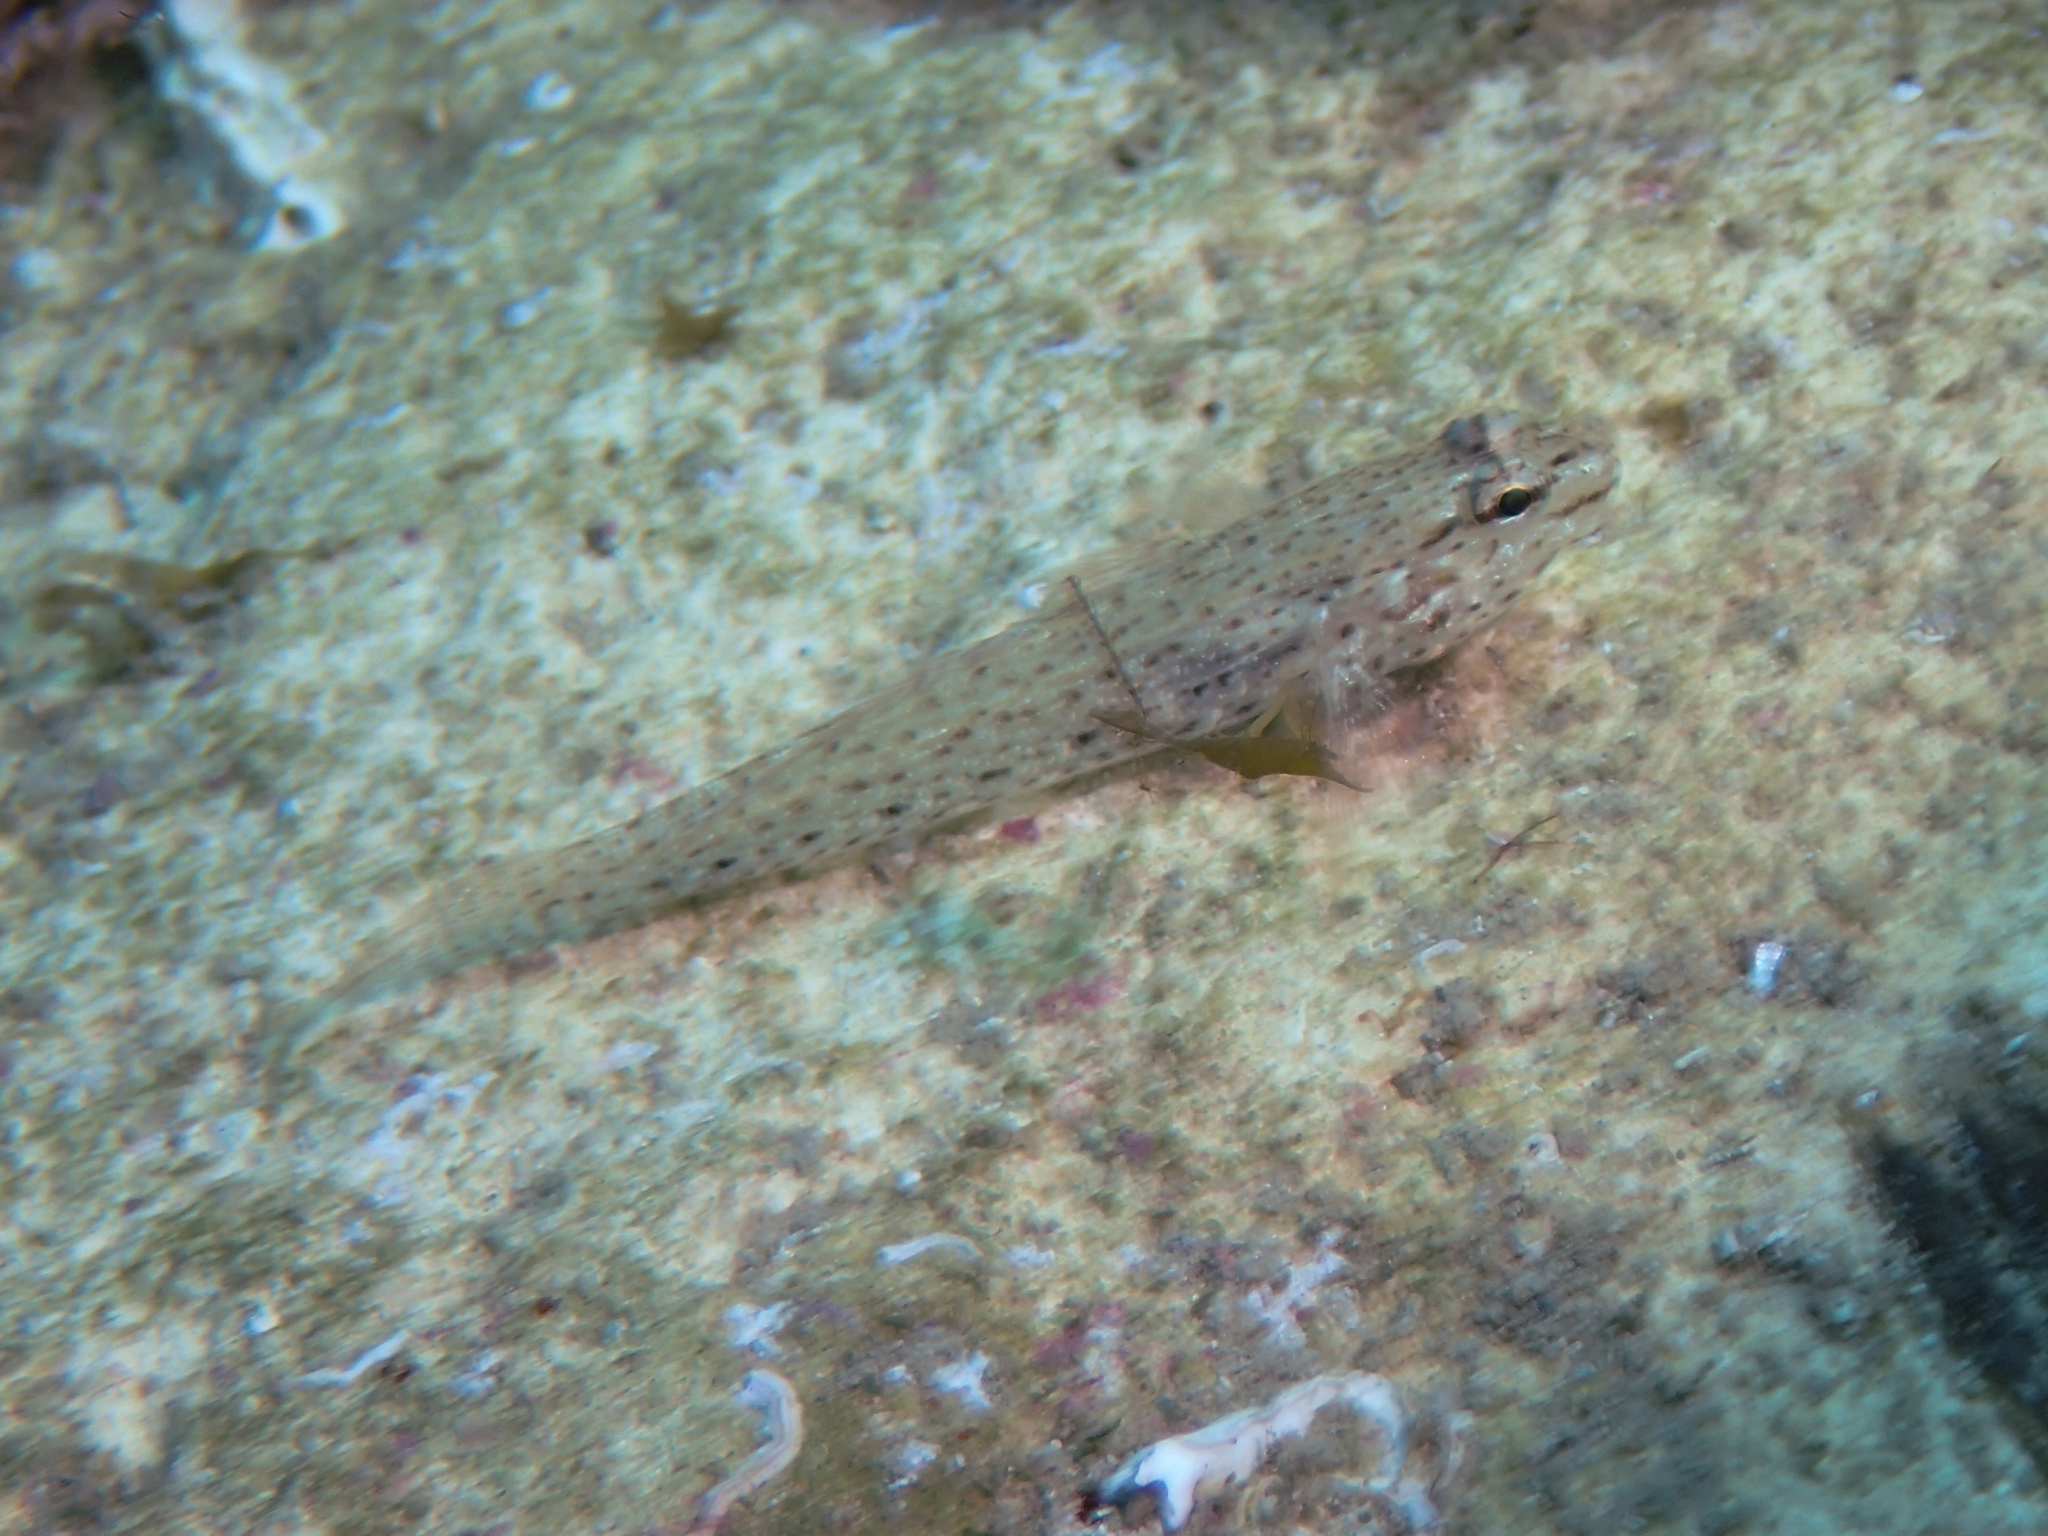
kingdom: Animalia
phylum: Chordata
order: Perciformes
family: Gobiidae
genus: Gobius
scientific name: Gobius incognitus
